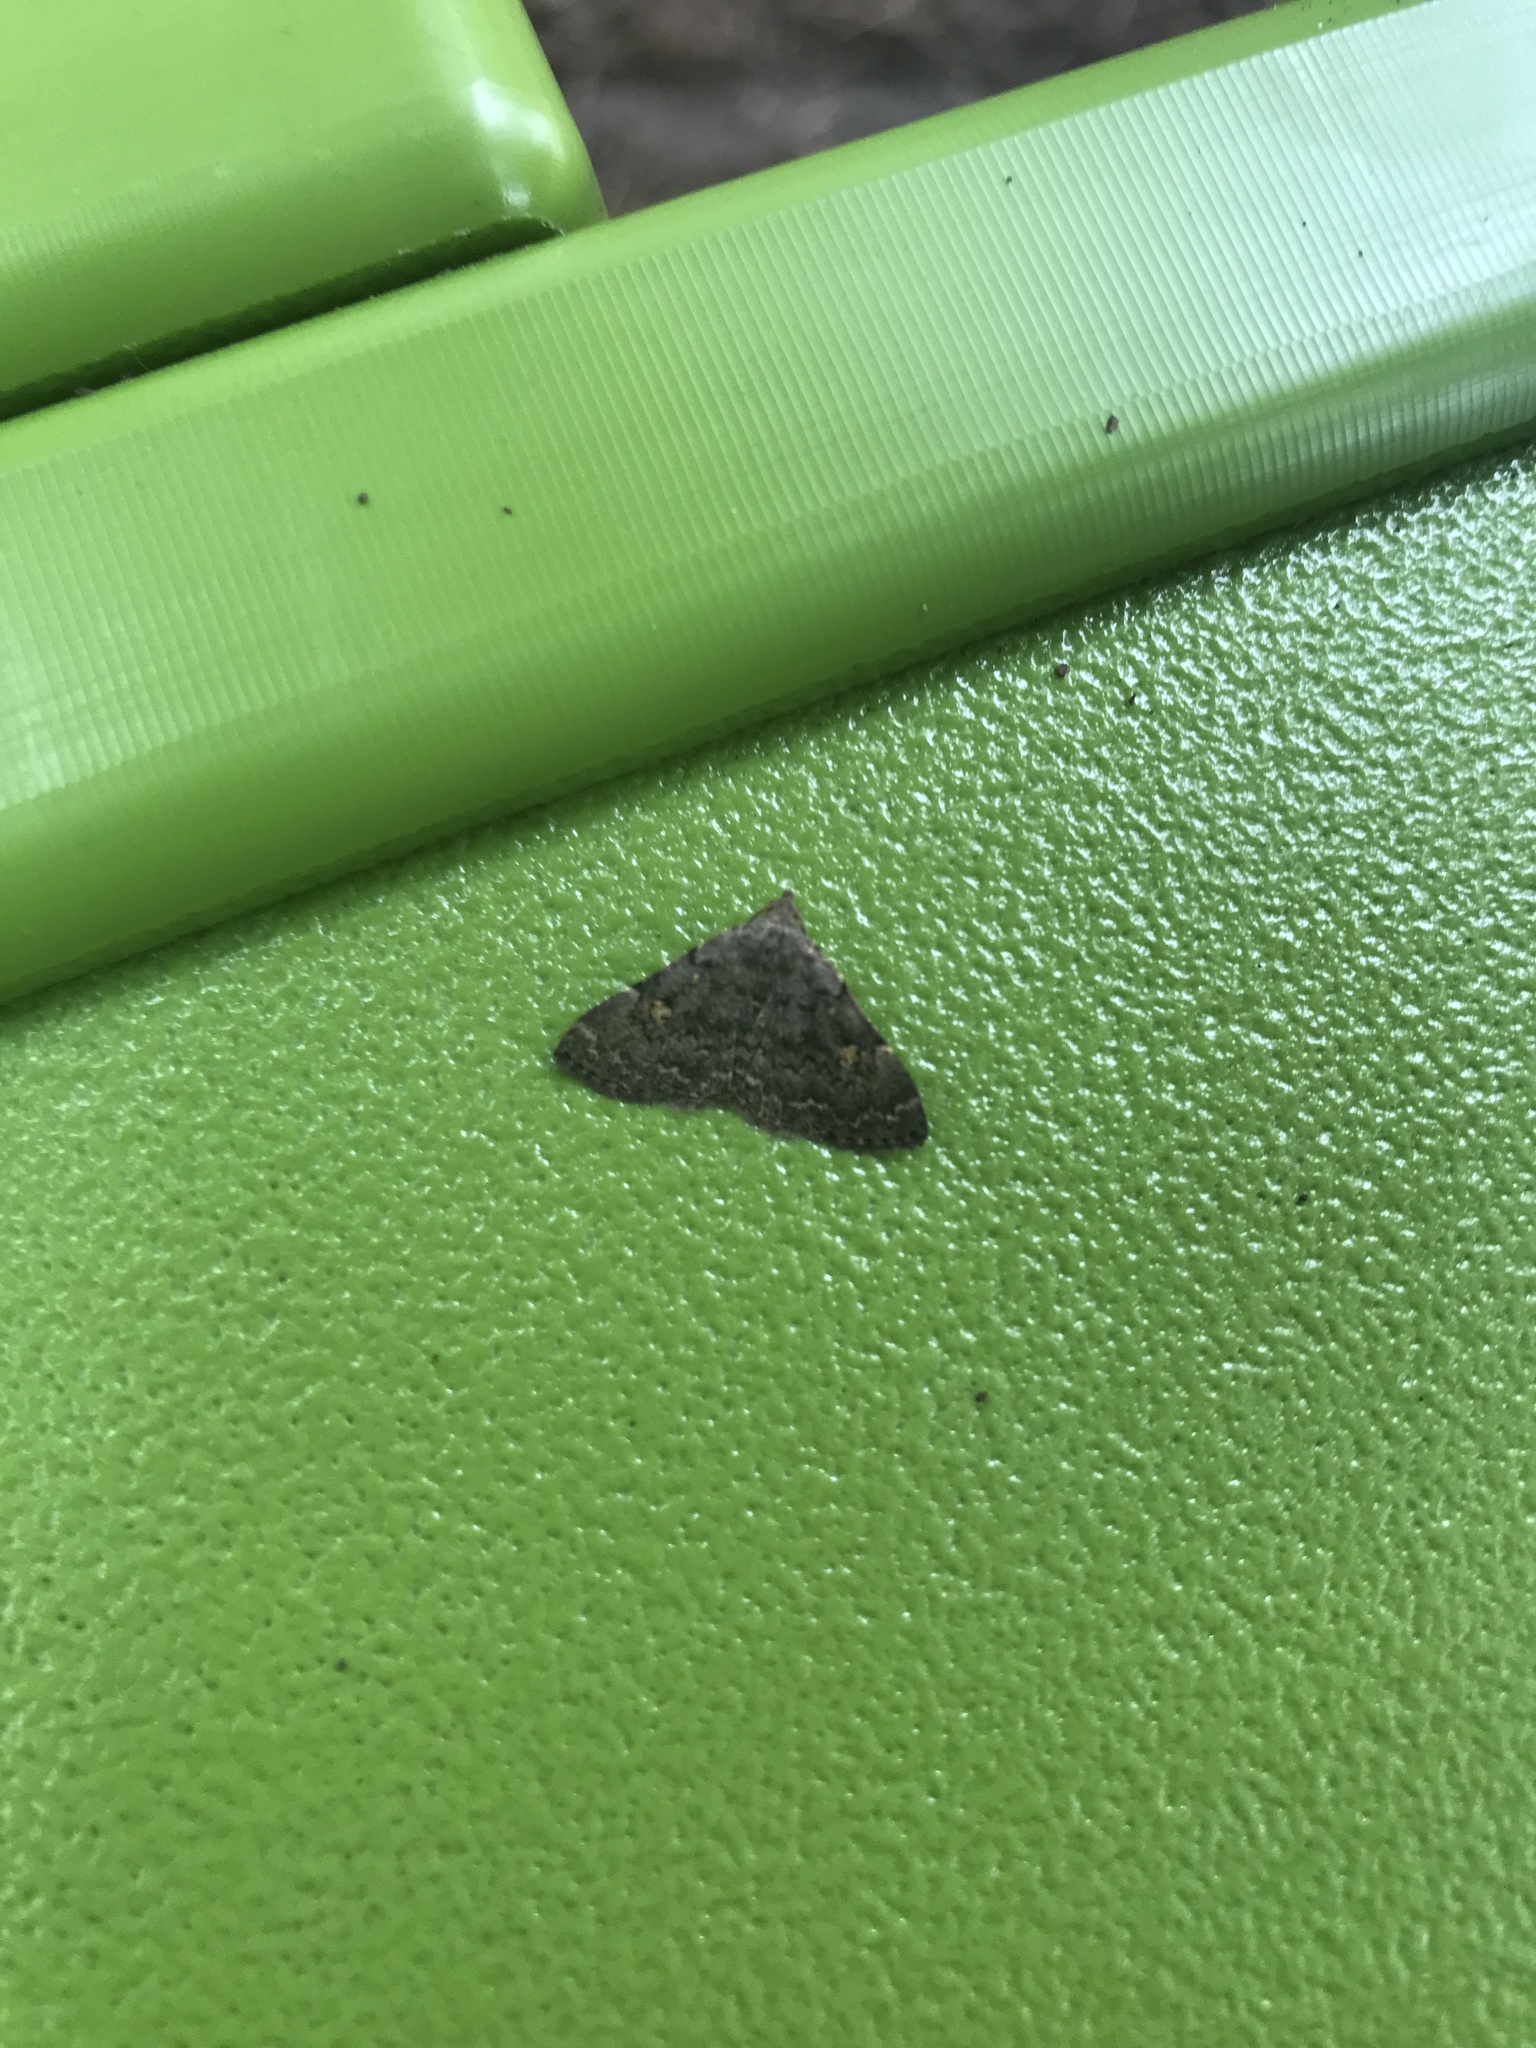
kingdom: Animalia
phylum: Arthropoda
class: Insecta
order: Lepidoptera
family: Erebidae
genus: Idia
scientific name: Idia aemula
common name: Common idia moth
